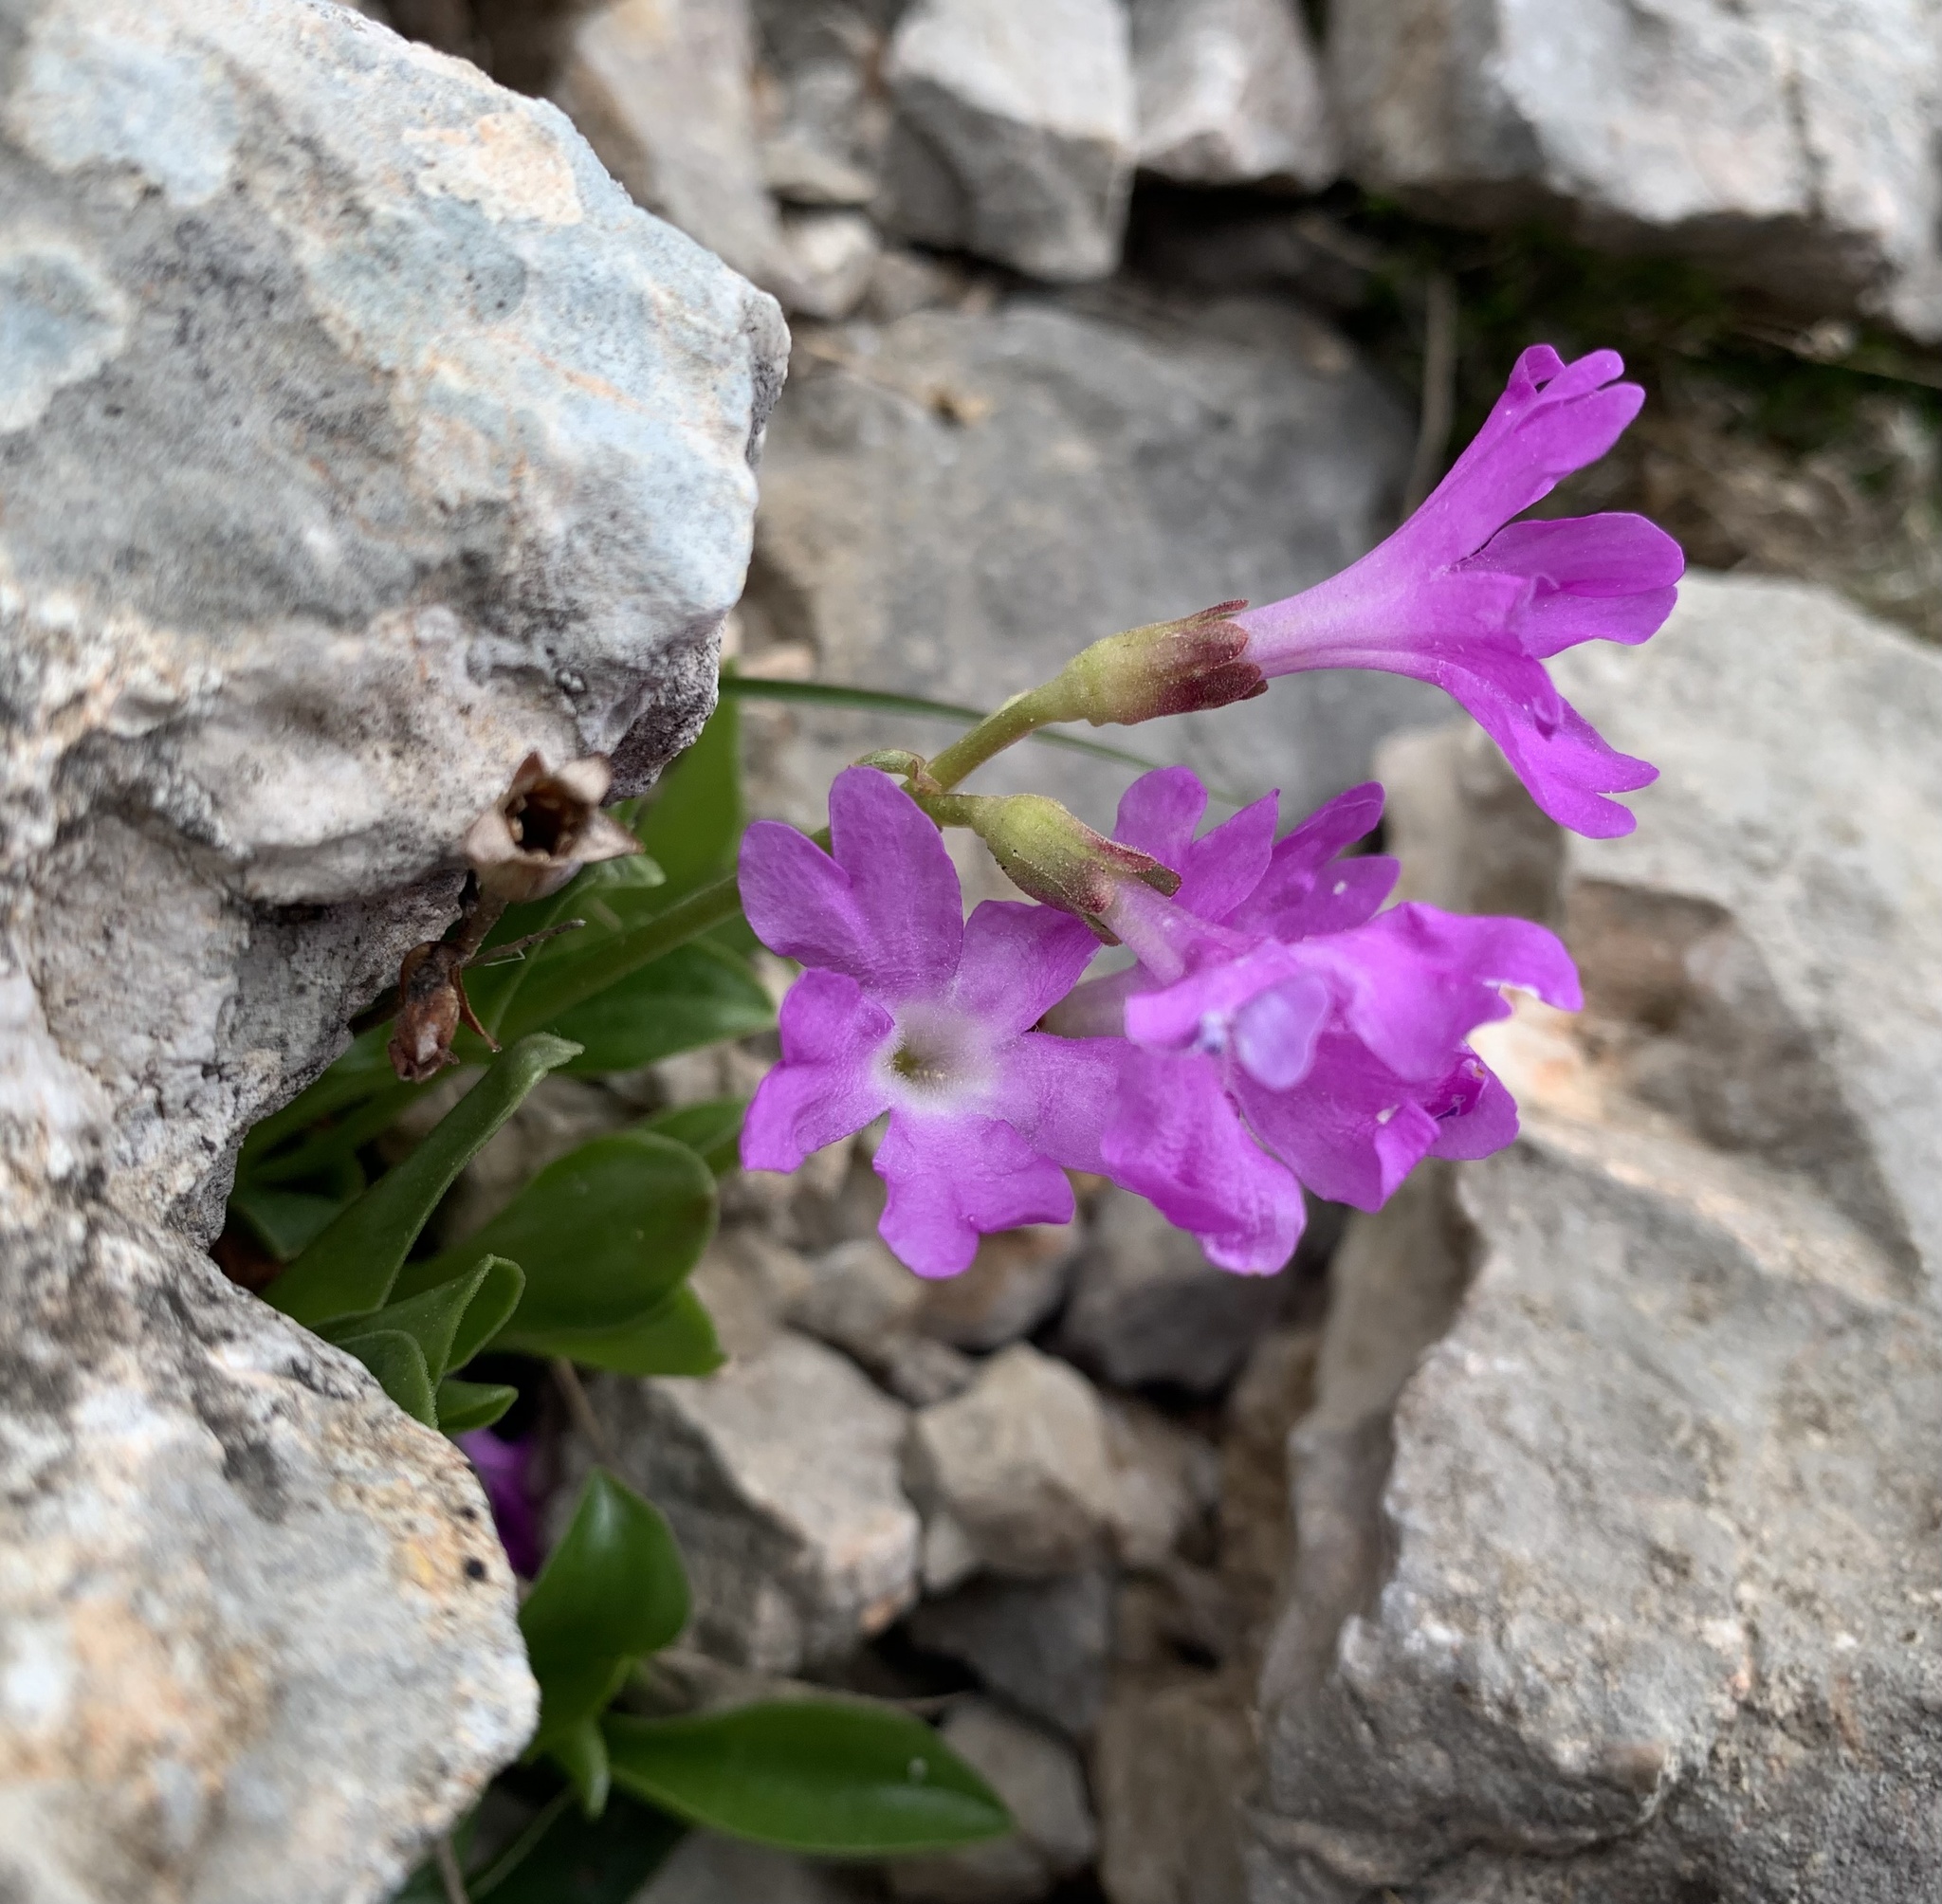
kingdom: Plantae
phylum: Tracheophyta
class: Magnoliopsida
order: Ericales
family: Primulaceae
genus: Primula
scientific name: Primula clusiana
